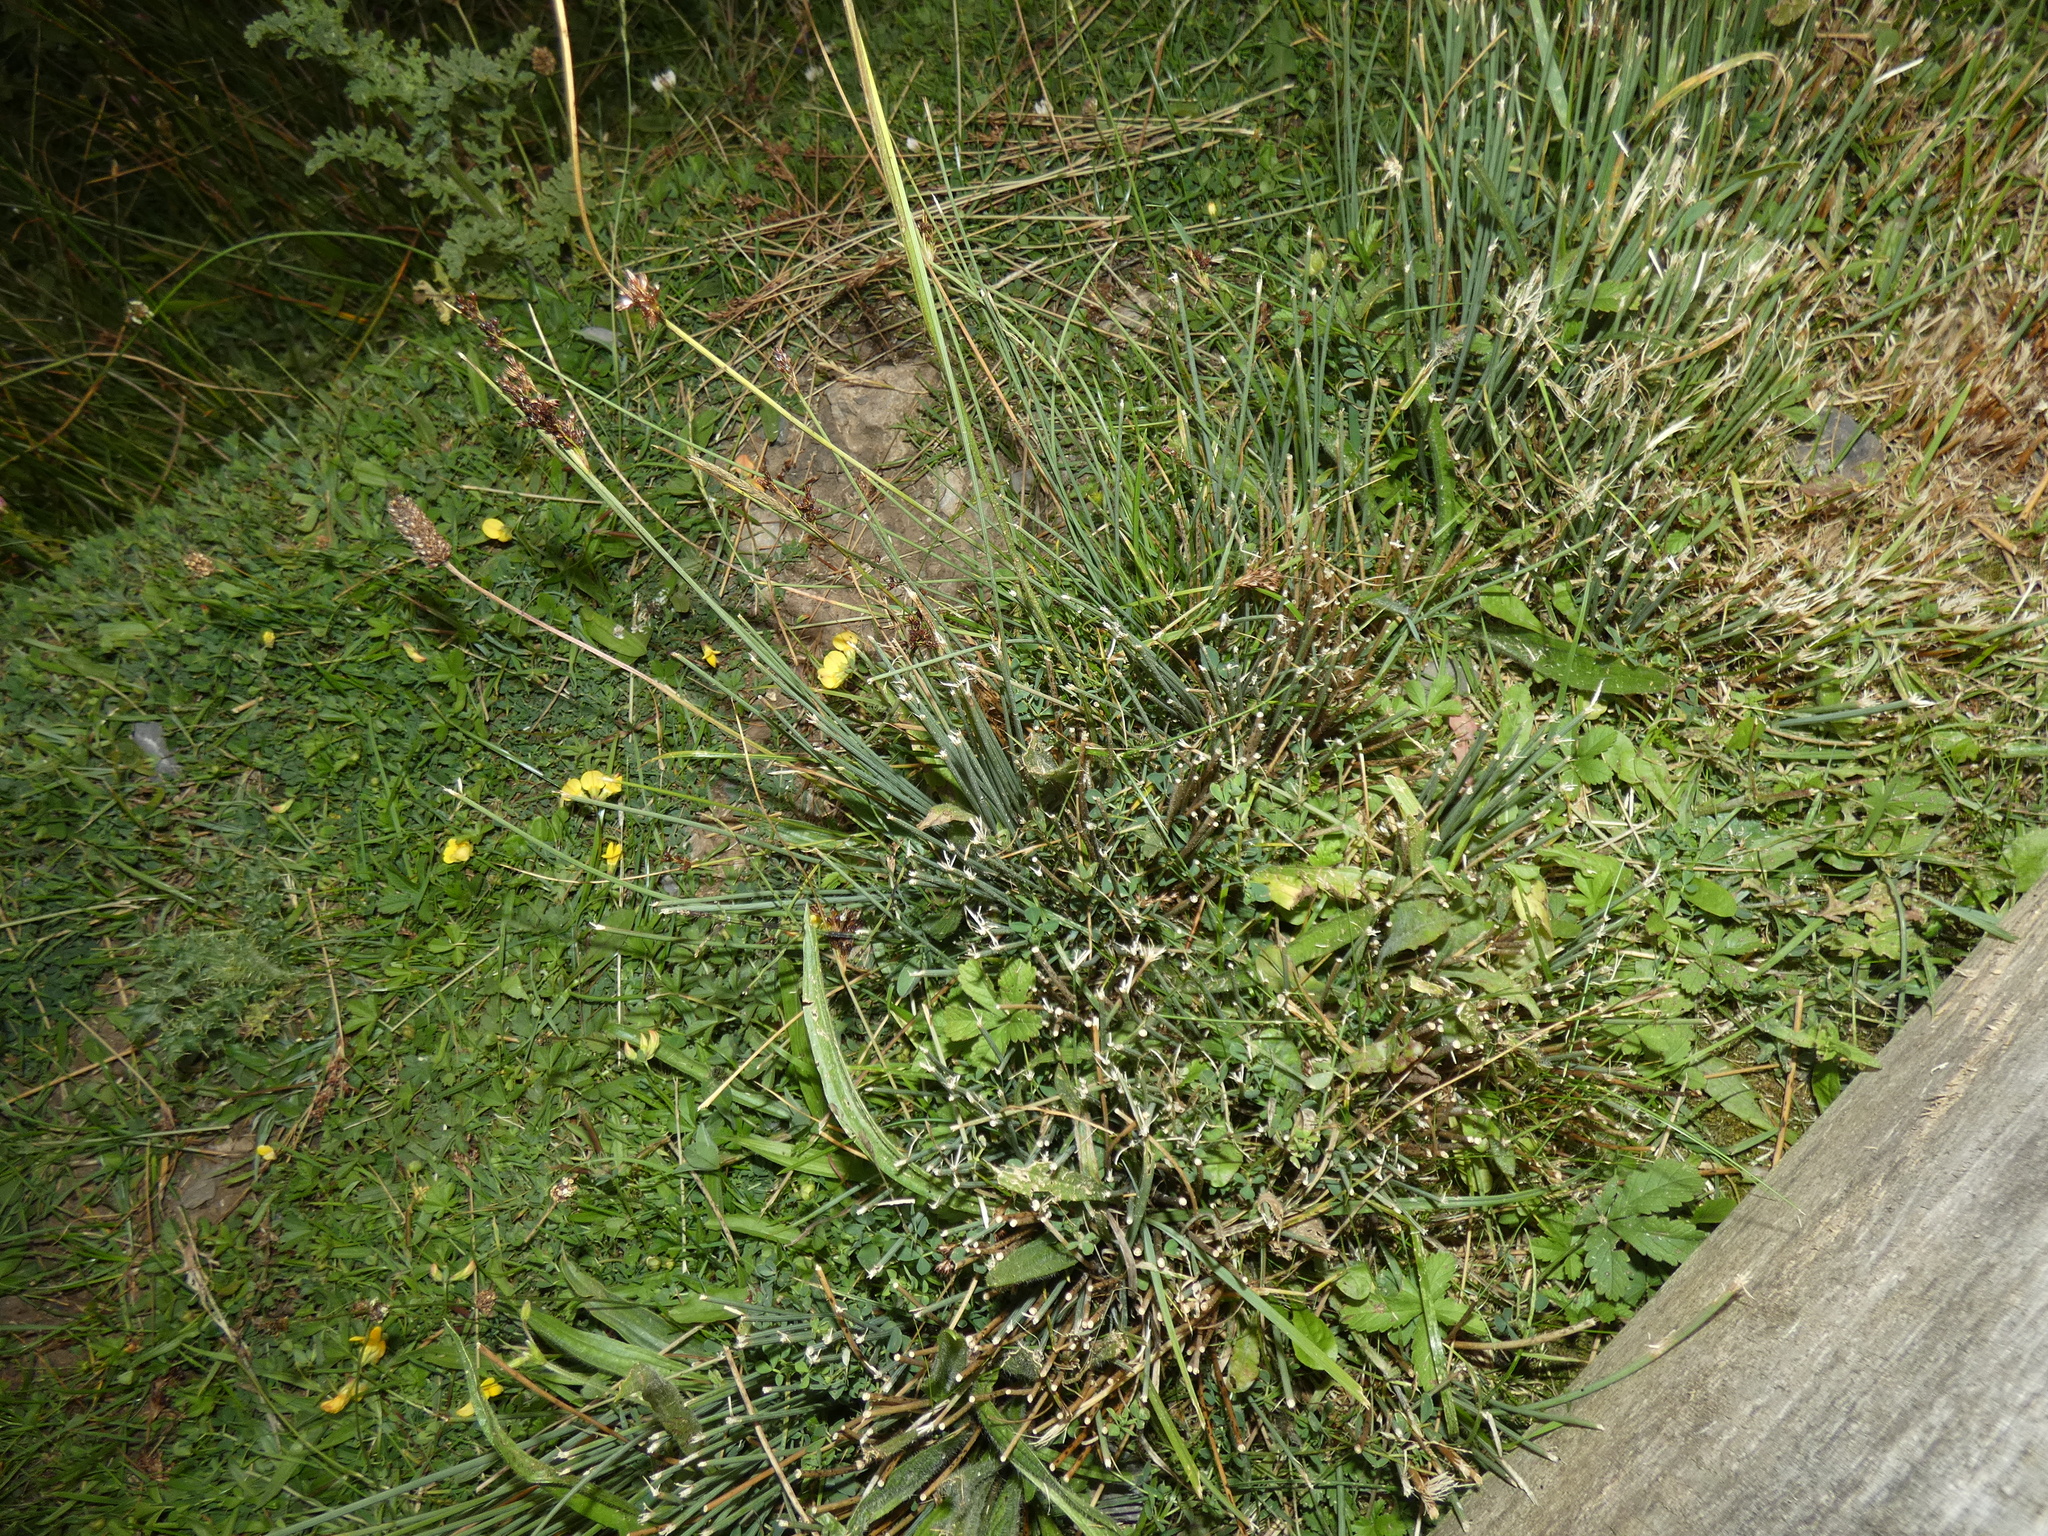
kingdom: Plantae
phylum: Tracheophyta
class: Liliopsida
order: Poales
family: Juncaceae
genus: Juncus
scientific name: Juncus inflexus
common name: Hard rush
